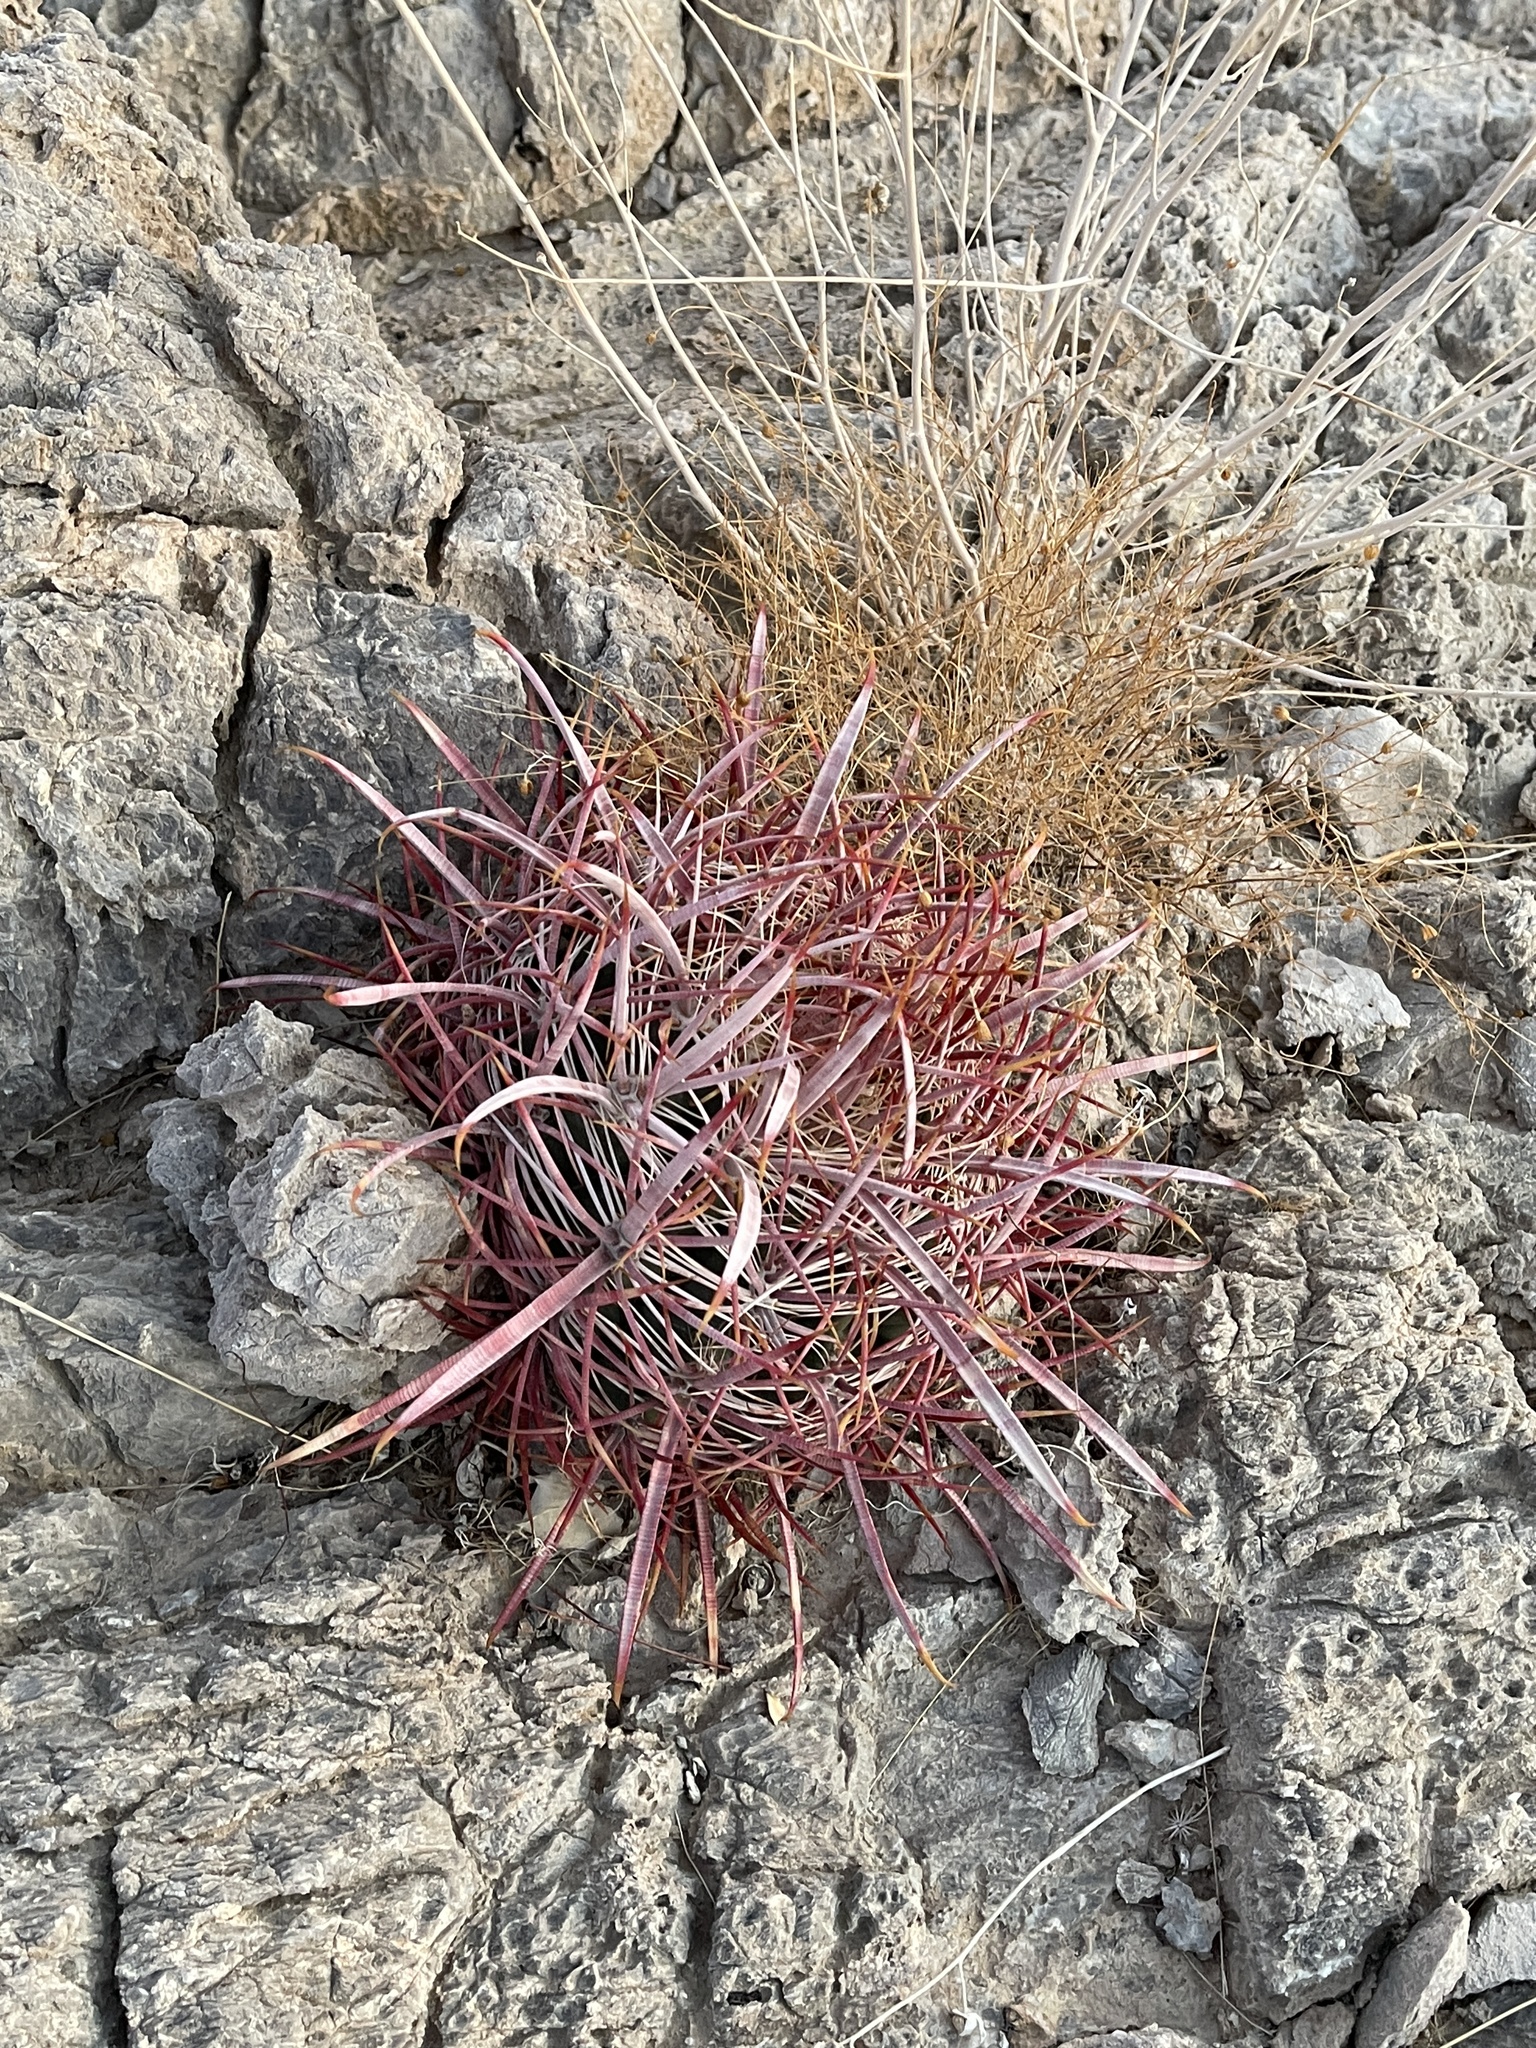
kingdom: Plantae
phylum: Tracheophyta
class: Magnoliopsida
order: Caryophyllales
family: Cactaceae
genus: Ferocactus
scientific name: Ferocactus cylindraceus
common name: California barrel cactus
